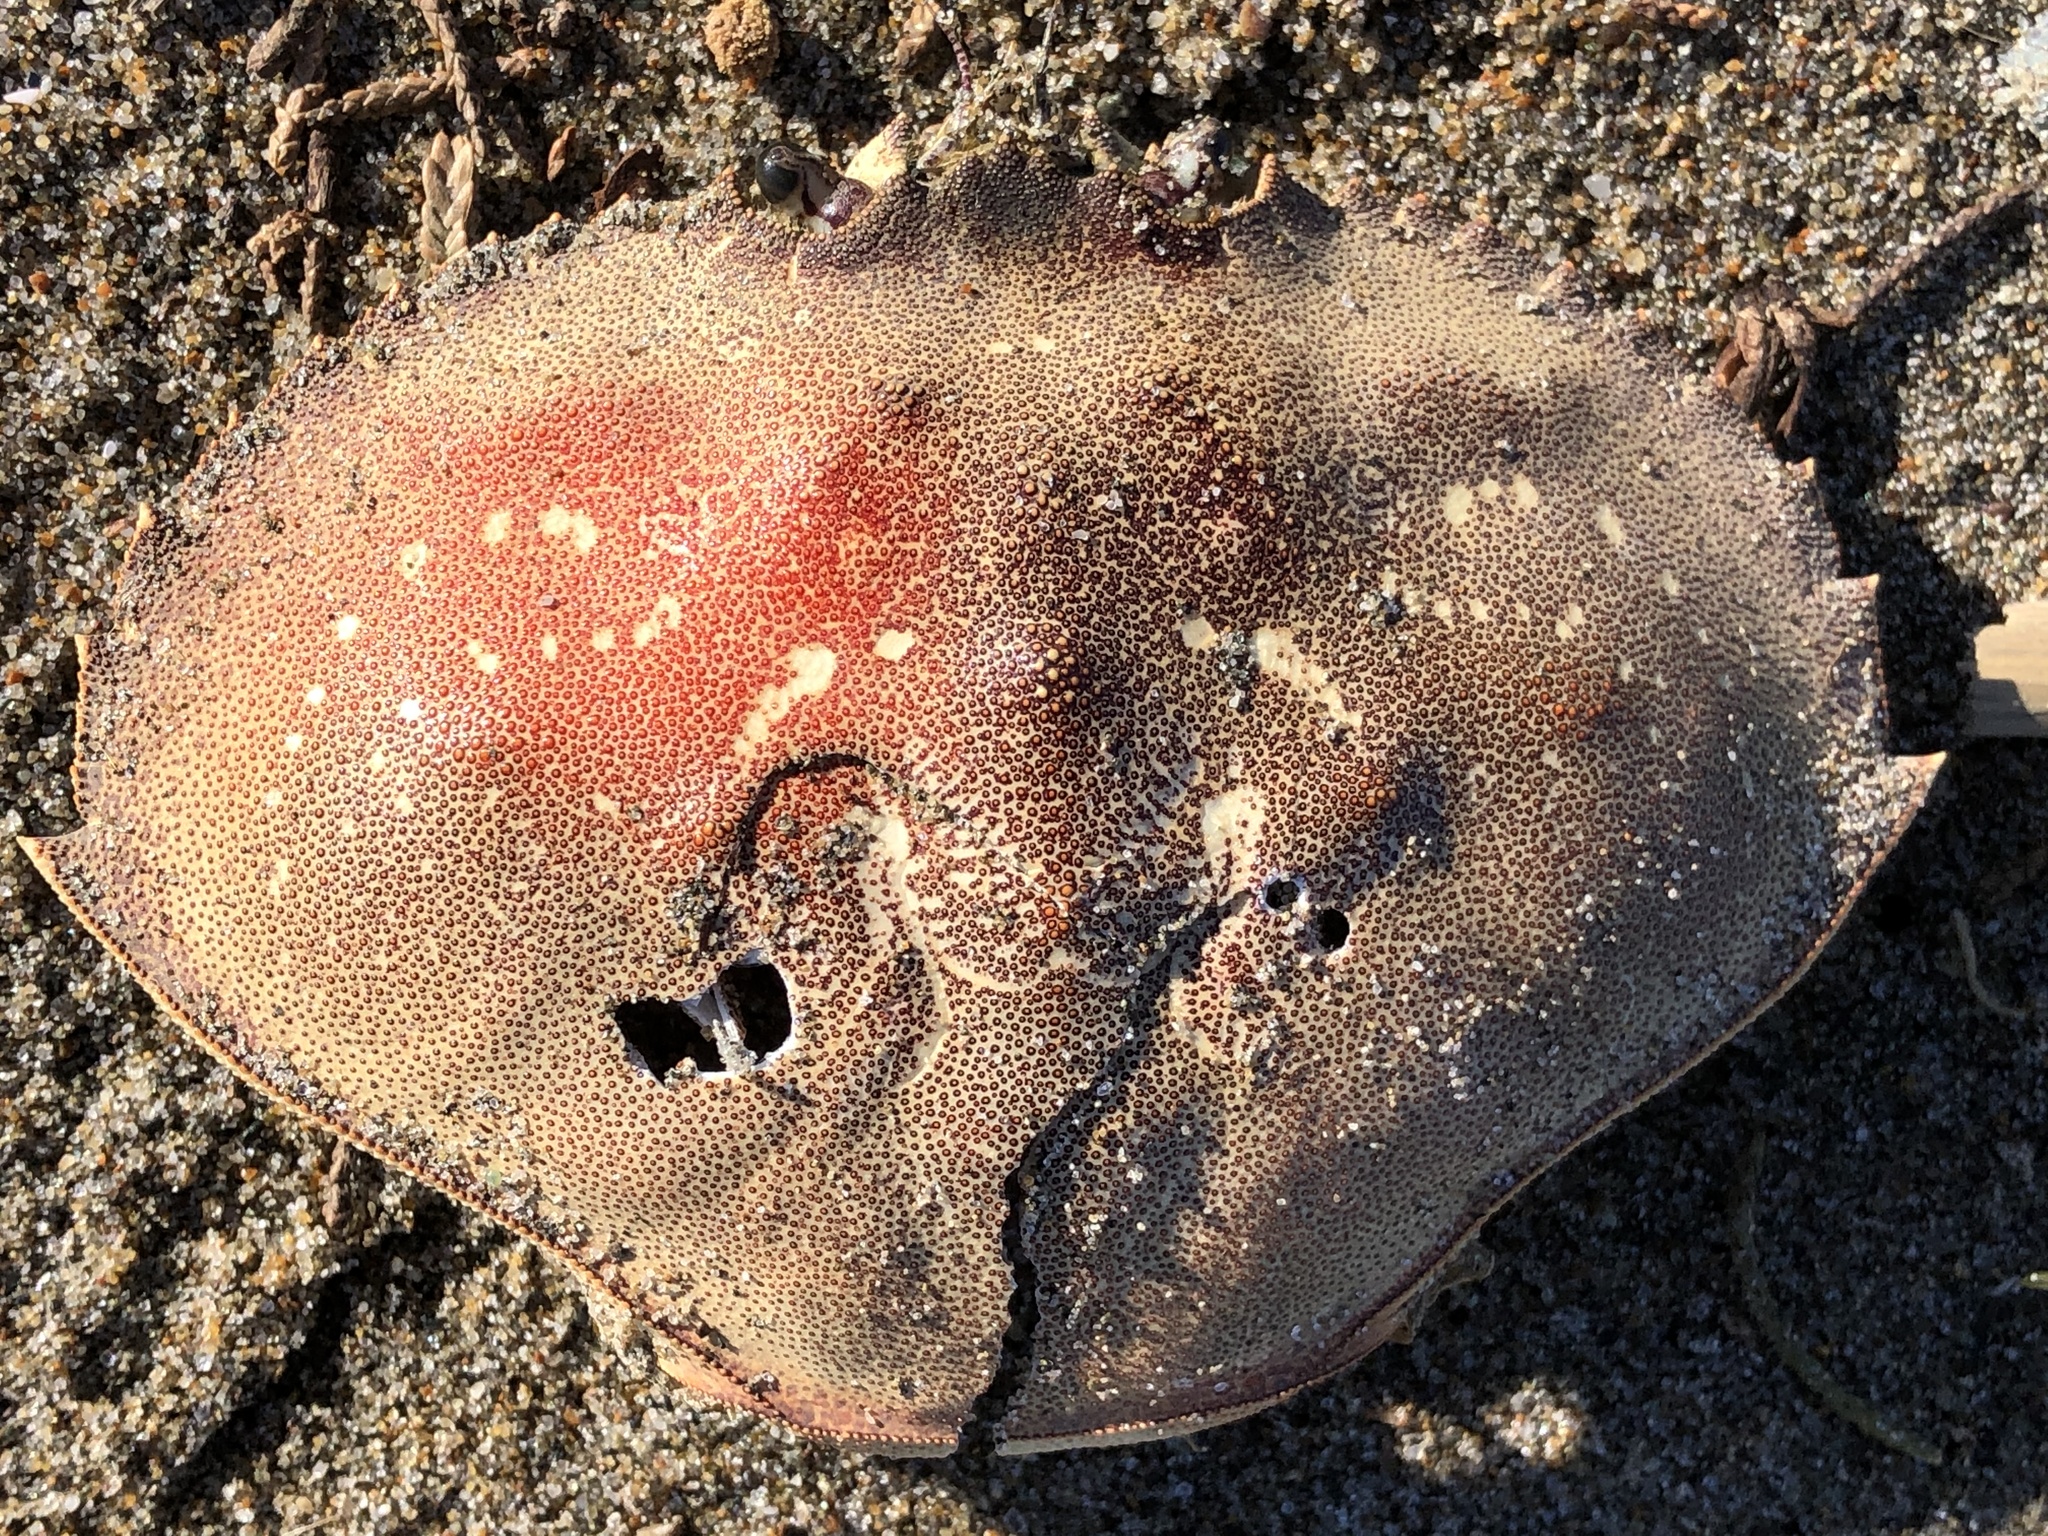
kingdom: Animalia
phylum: Arthropoda
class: Malacostraca
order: Decapoda
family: Cancridae
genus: Metacarcinus
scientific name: Metacarcinus magister
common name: Californian crab
